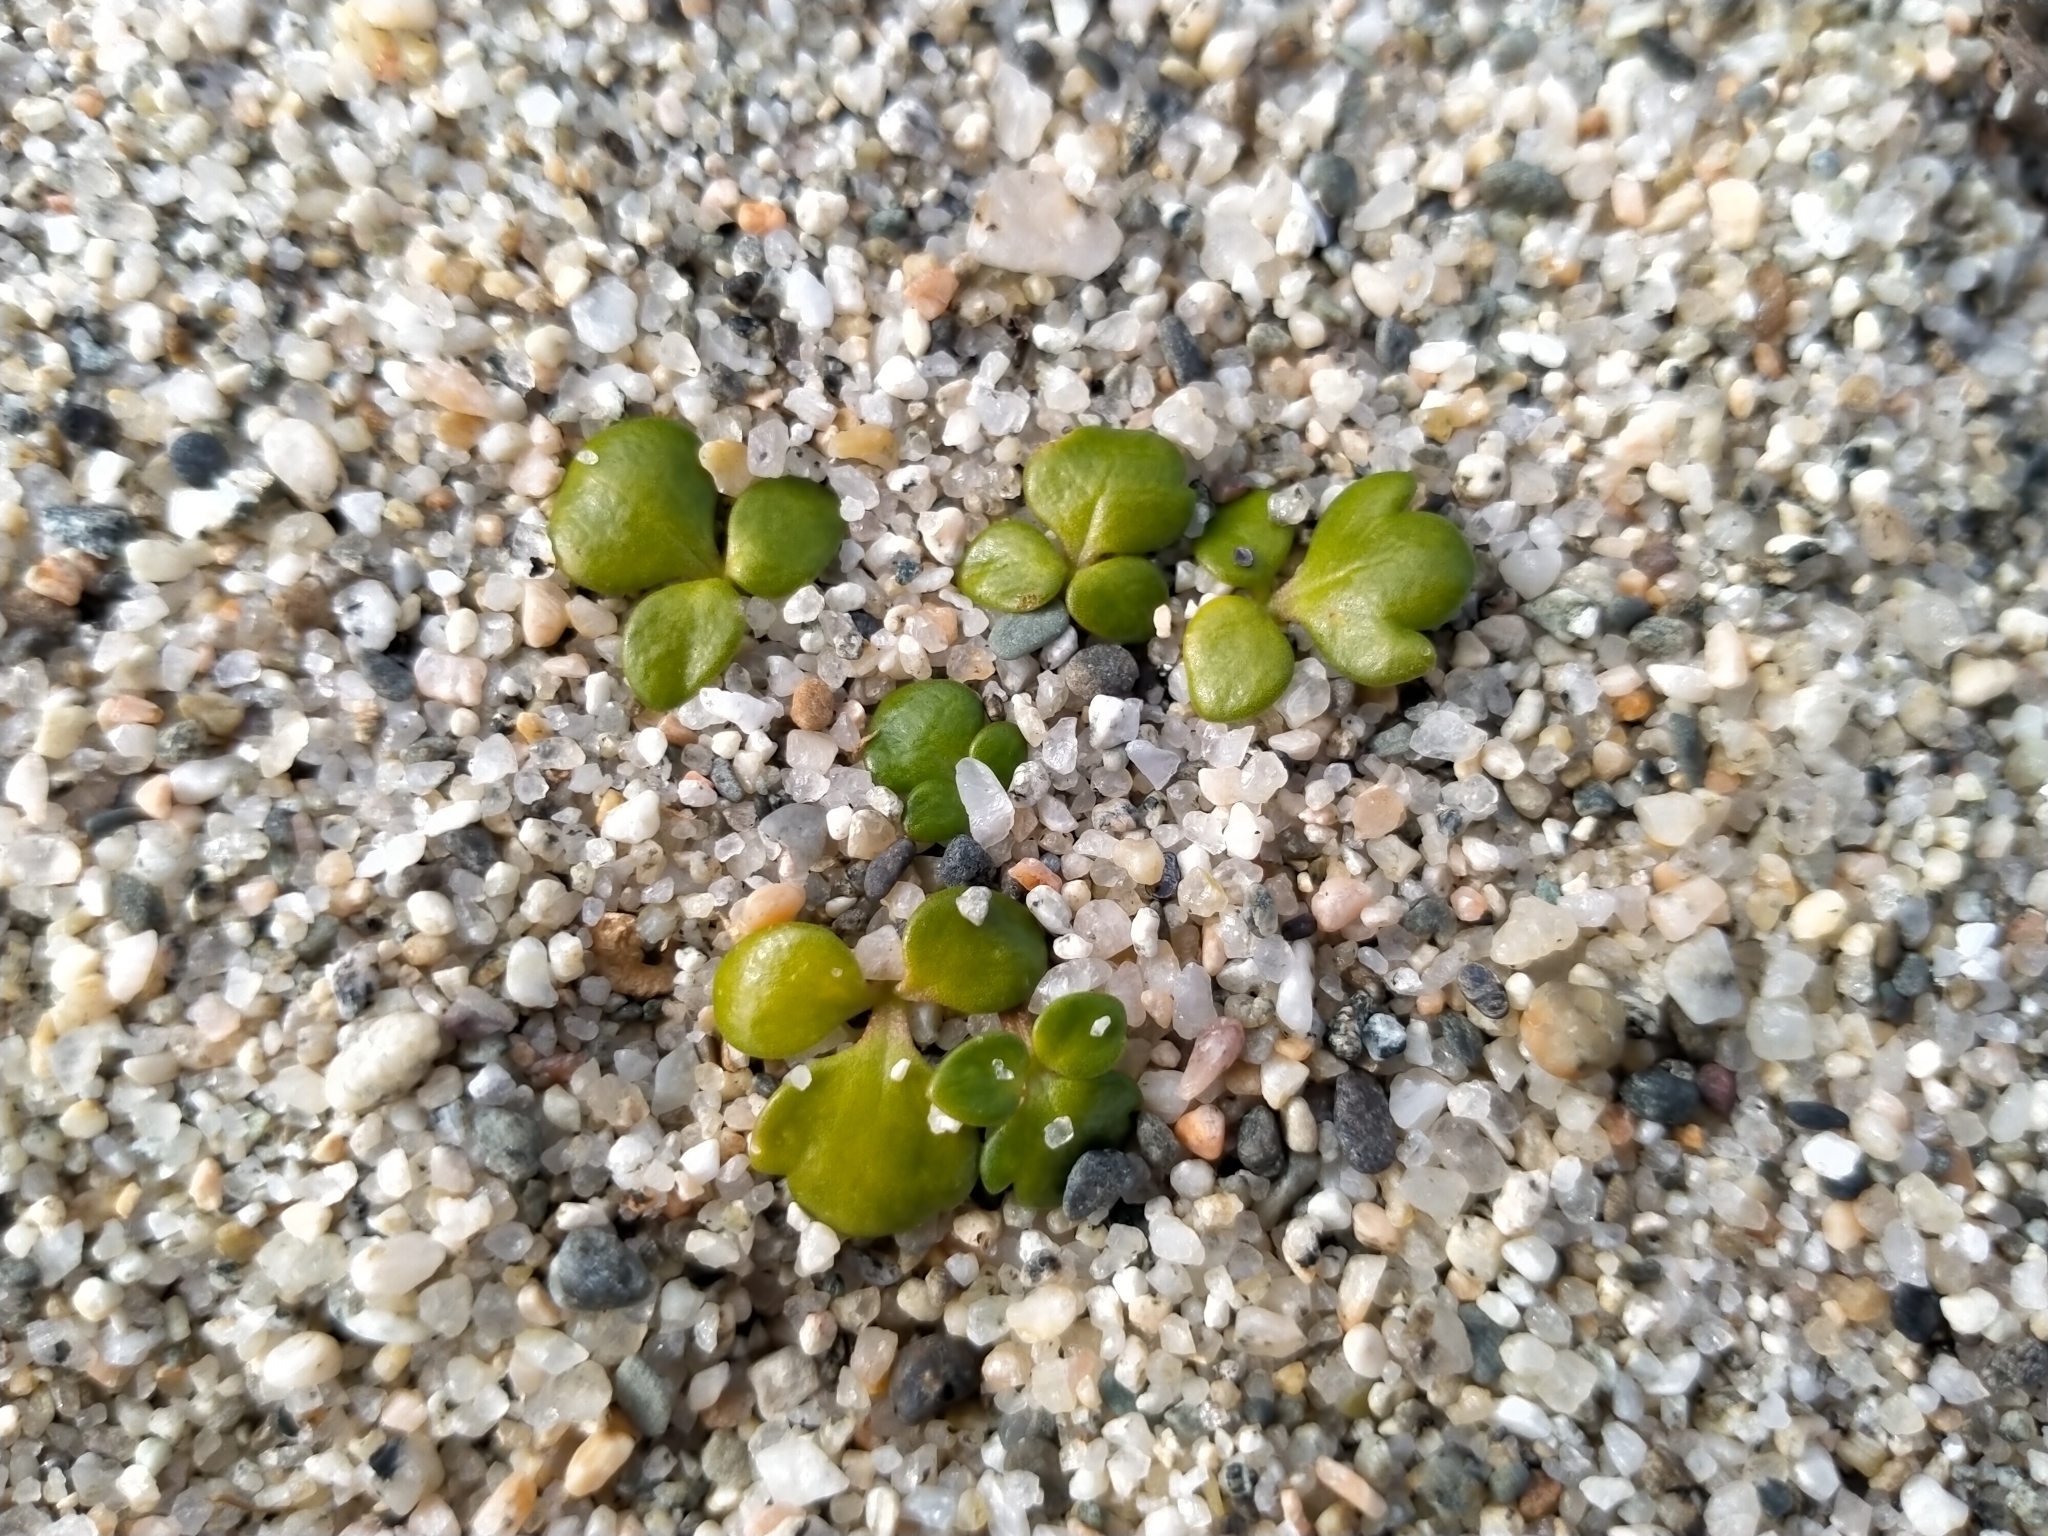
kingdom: Plantae
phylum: Tracheophyta
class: Magnoliopsida
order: Ranunculales
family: Ranunculaceae
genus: Ranunculus
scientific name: Ranunculus acaulis
